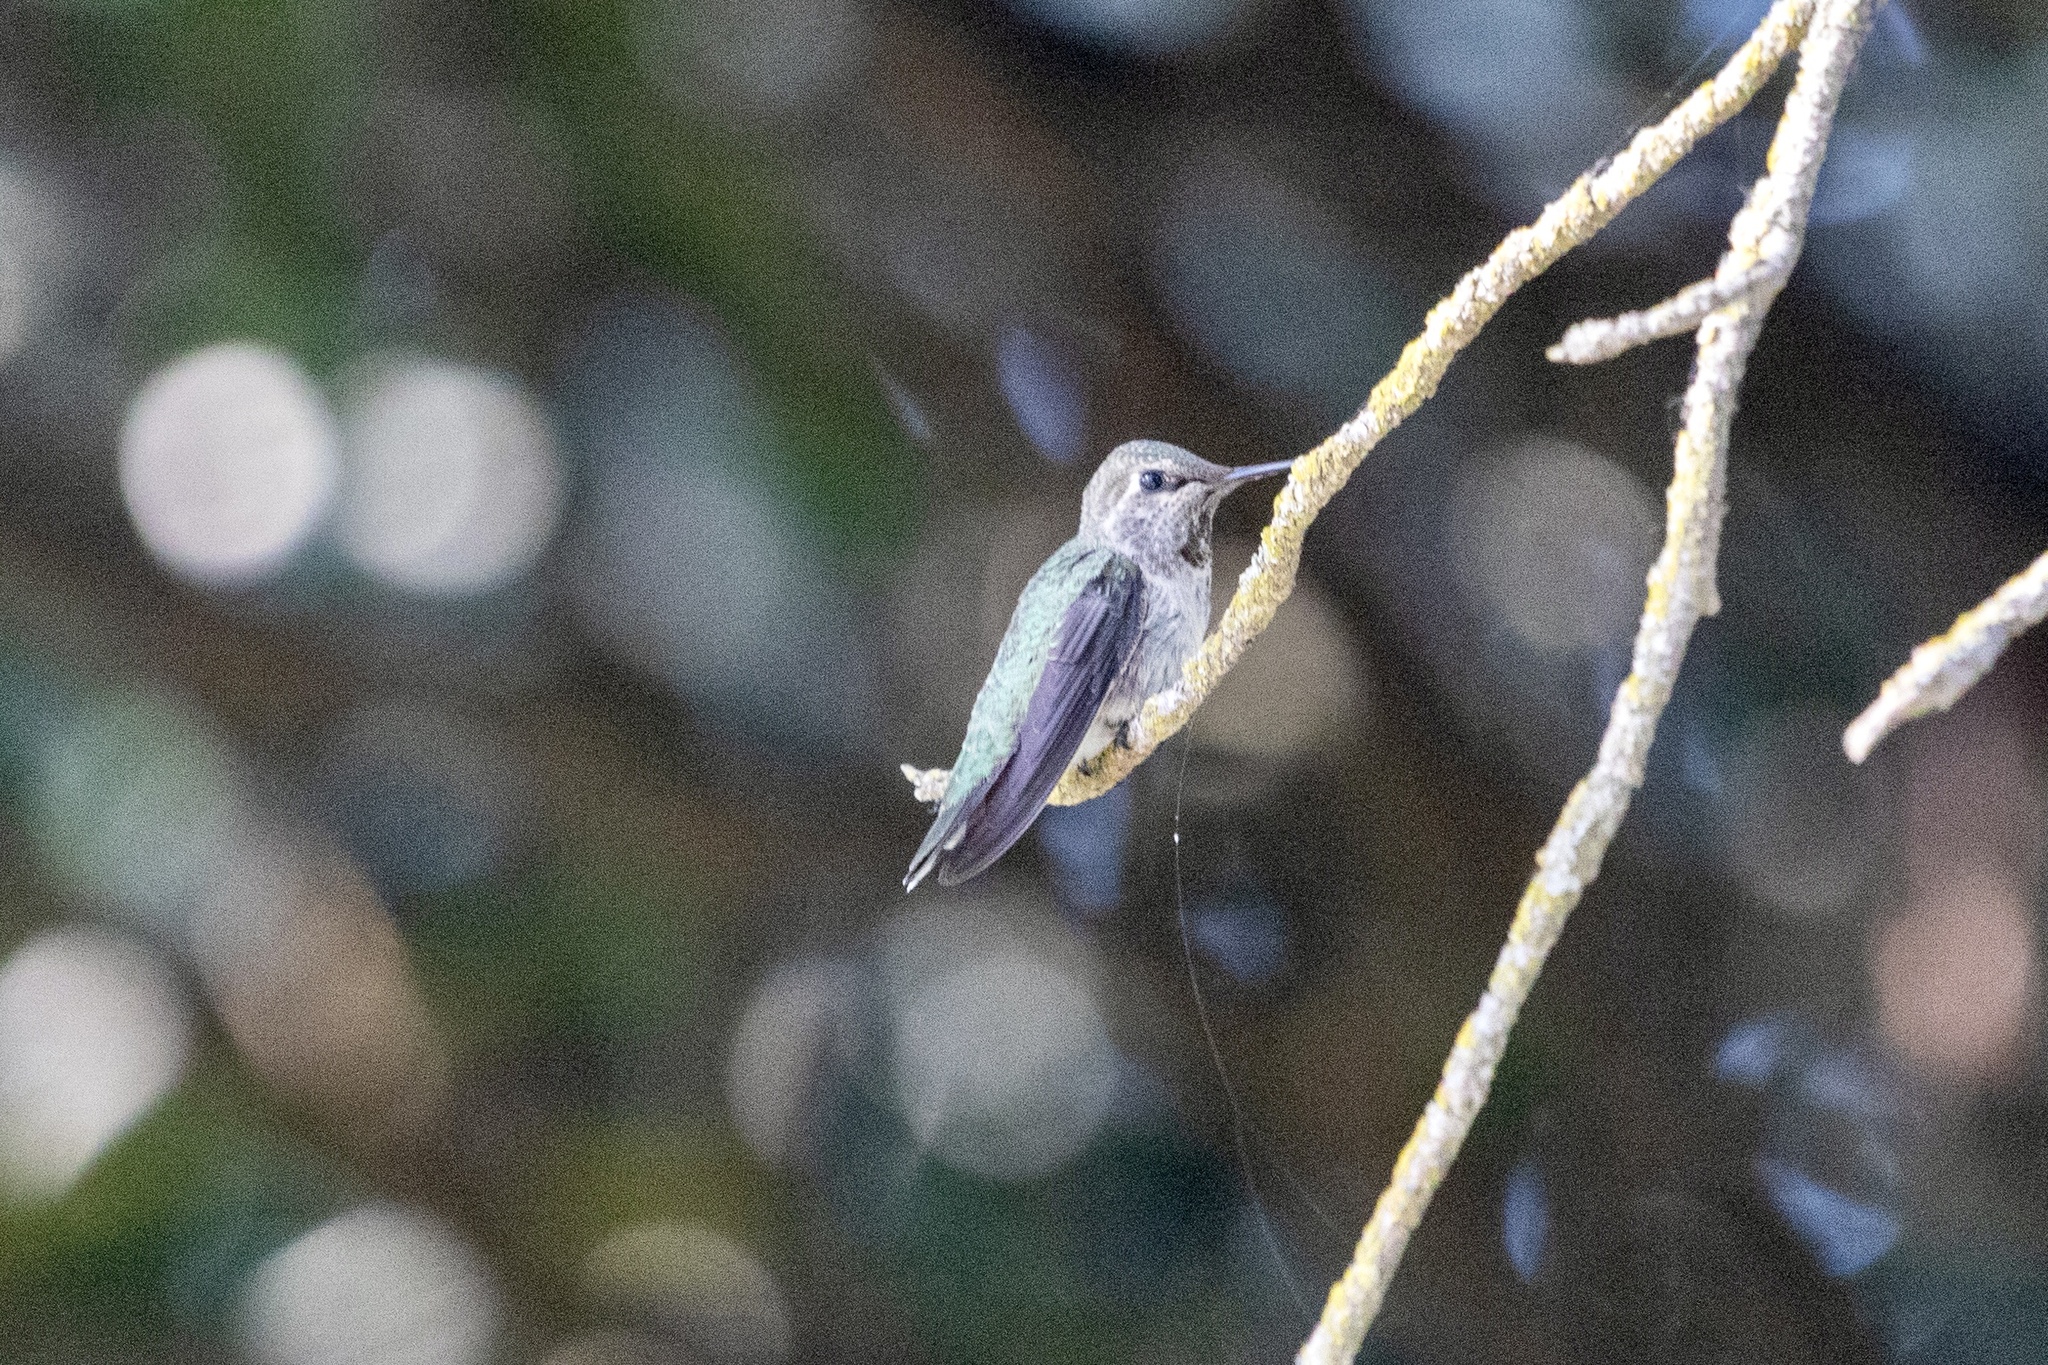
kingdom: Animalia
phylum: Chordata
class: Aves
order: Apodiformes
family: Trochilidae
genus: Calypte
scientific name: Calypte anna
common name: Anna's hummingbird
